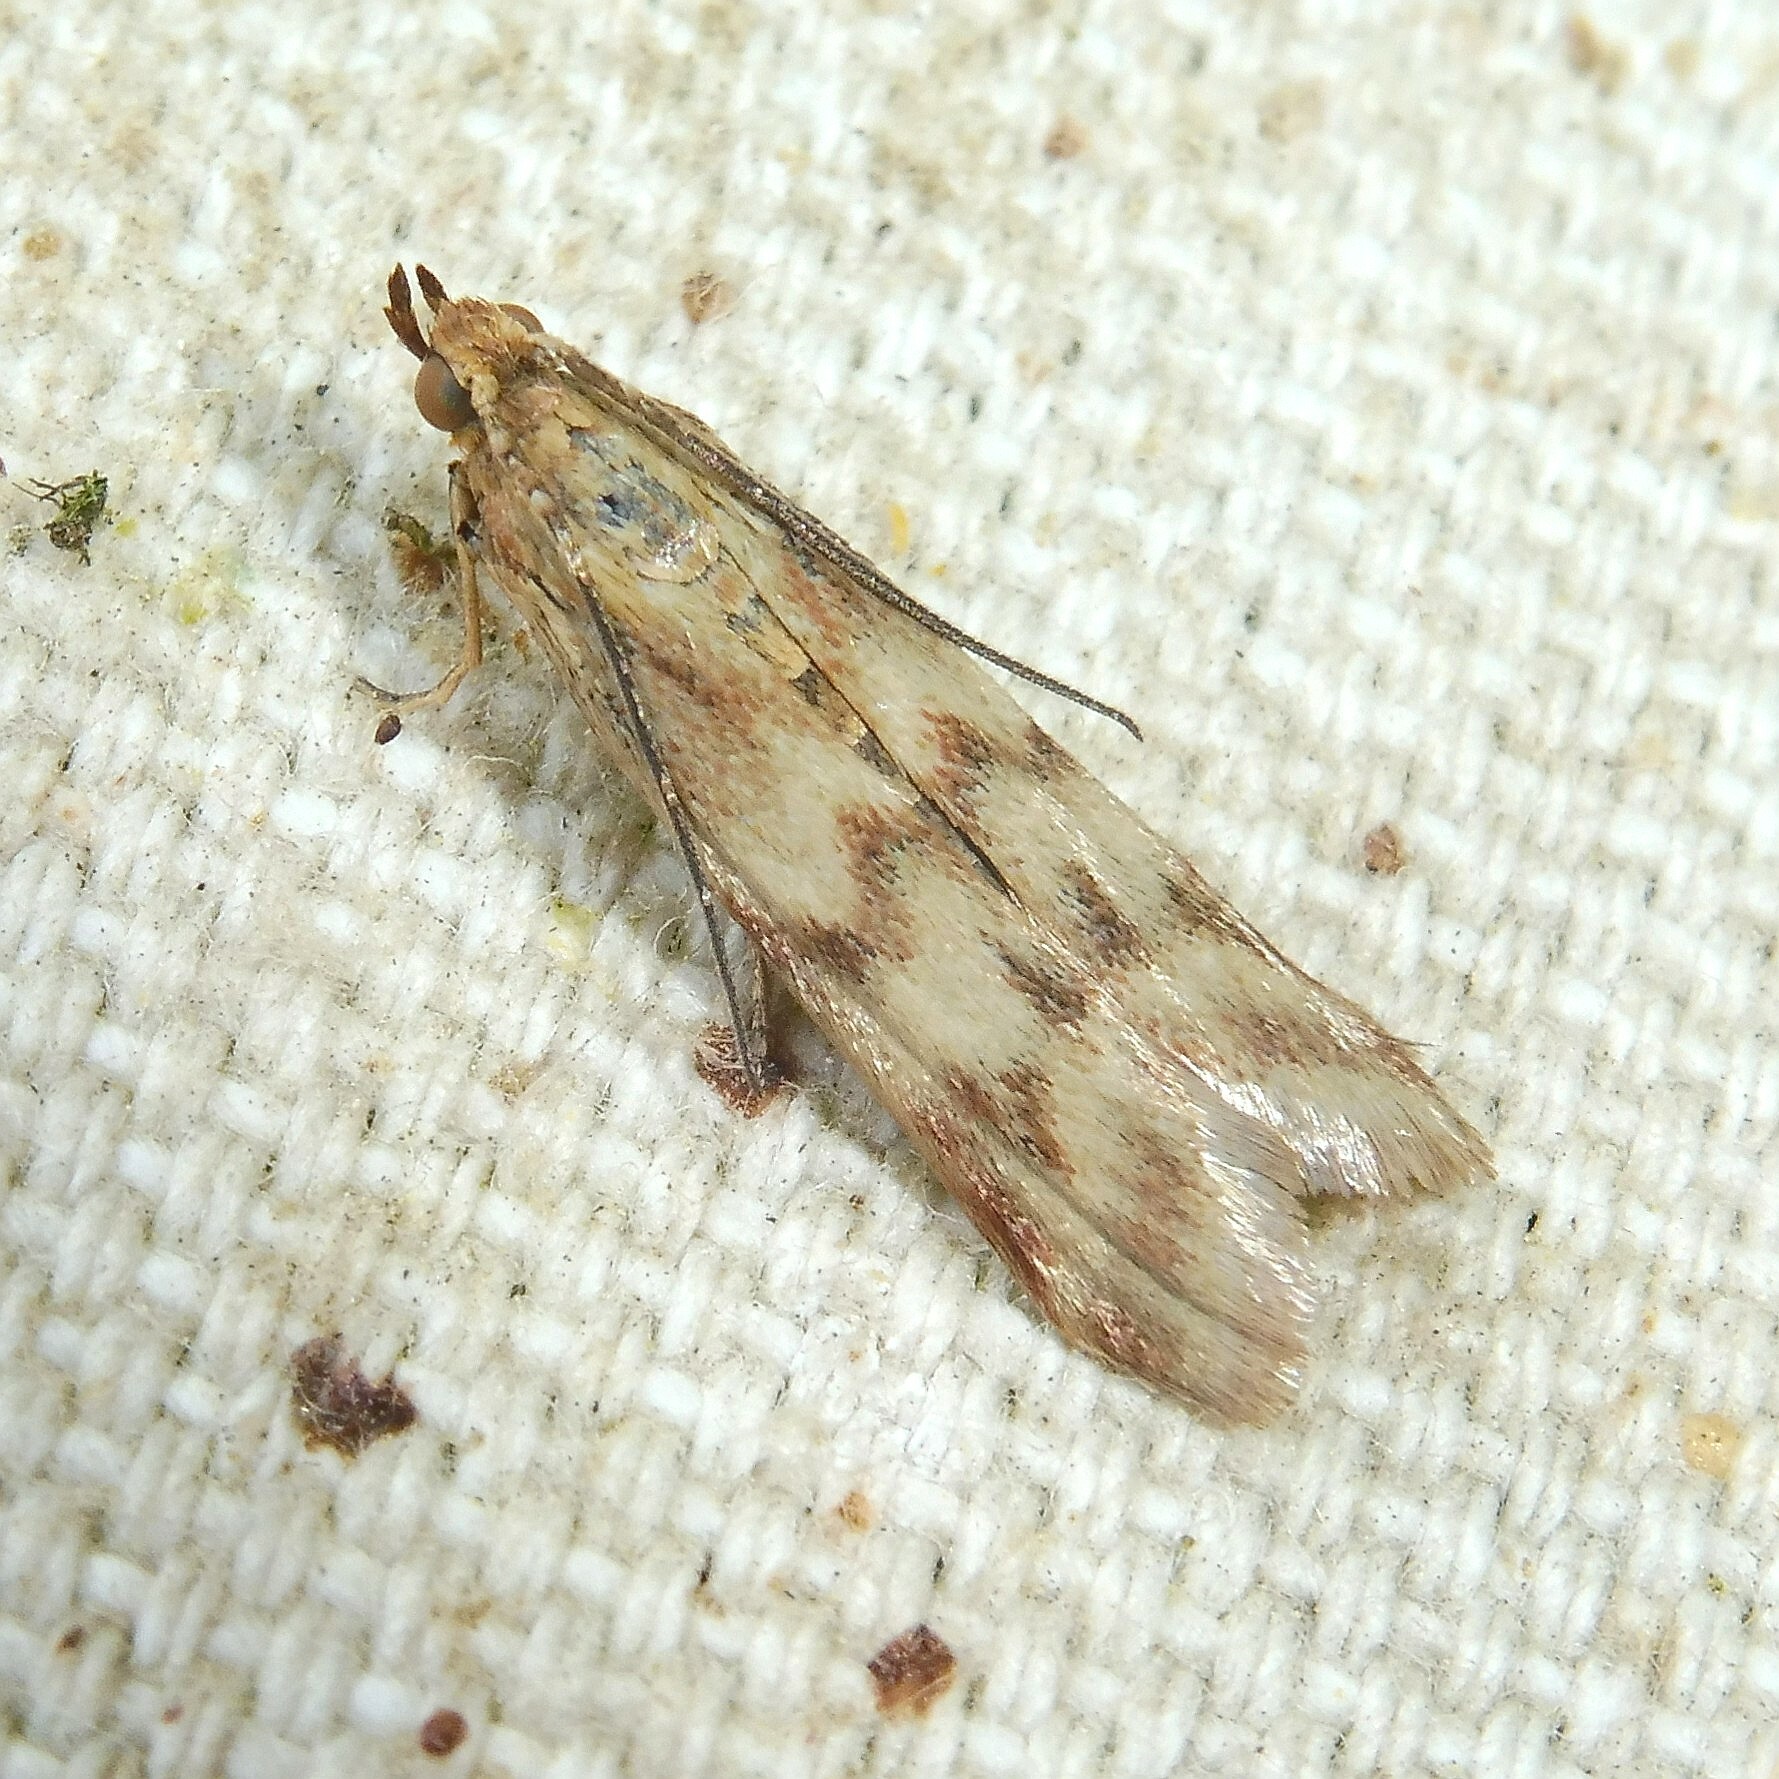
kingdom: Animalia
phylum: Arthropoda
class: Insecta
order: Lepidoptera
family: Pyralidae
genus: Homoeosoma
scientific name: Homoeosoma sinuella
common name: Twin-barred knot-horn
